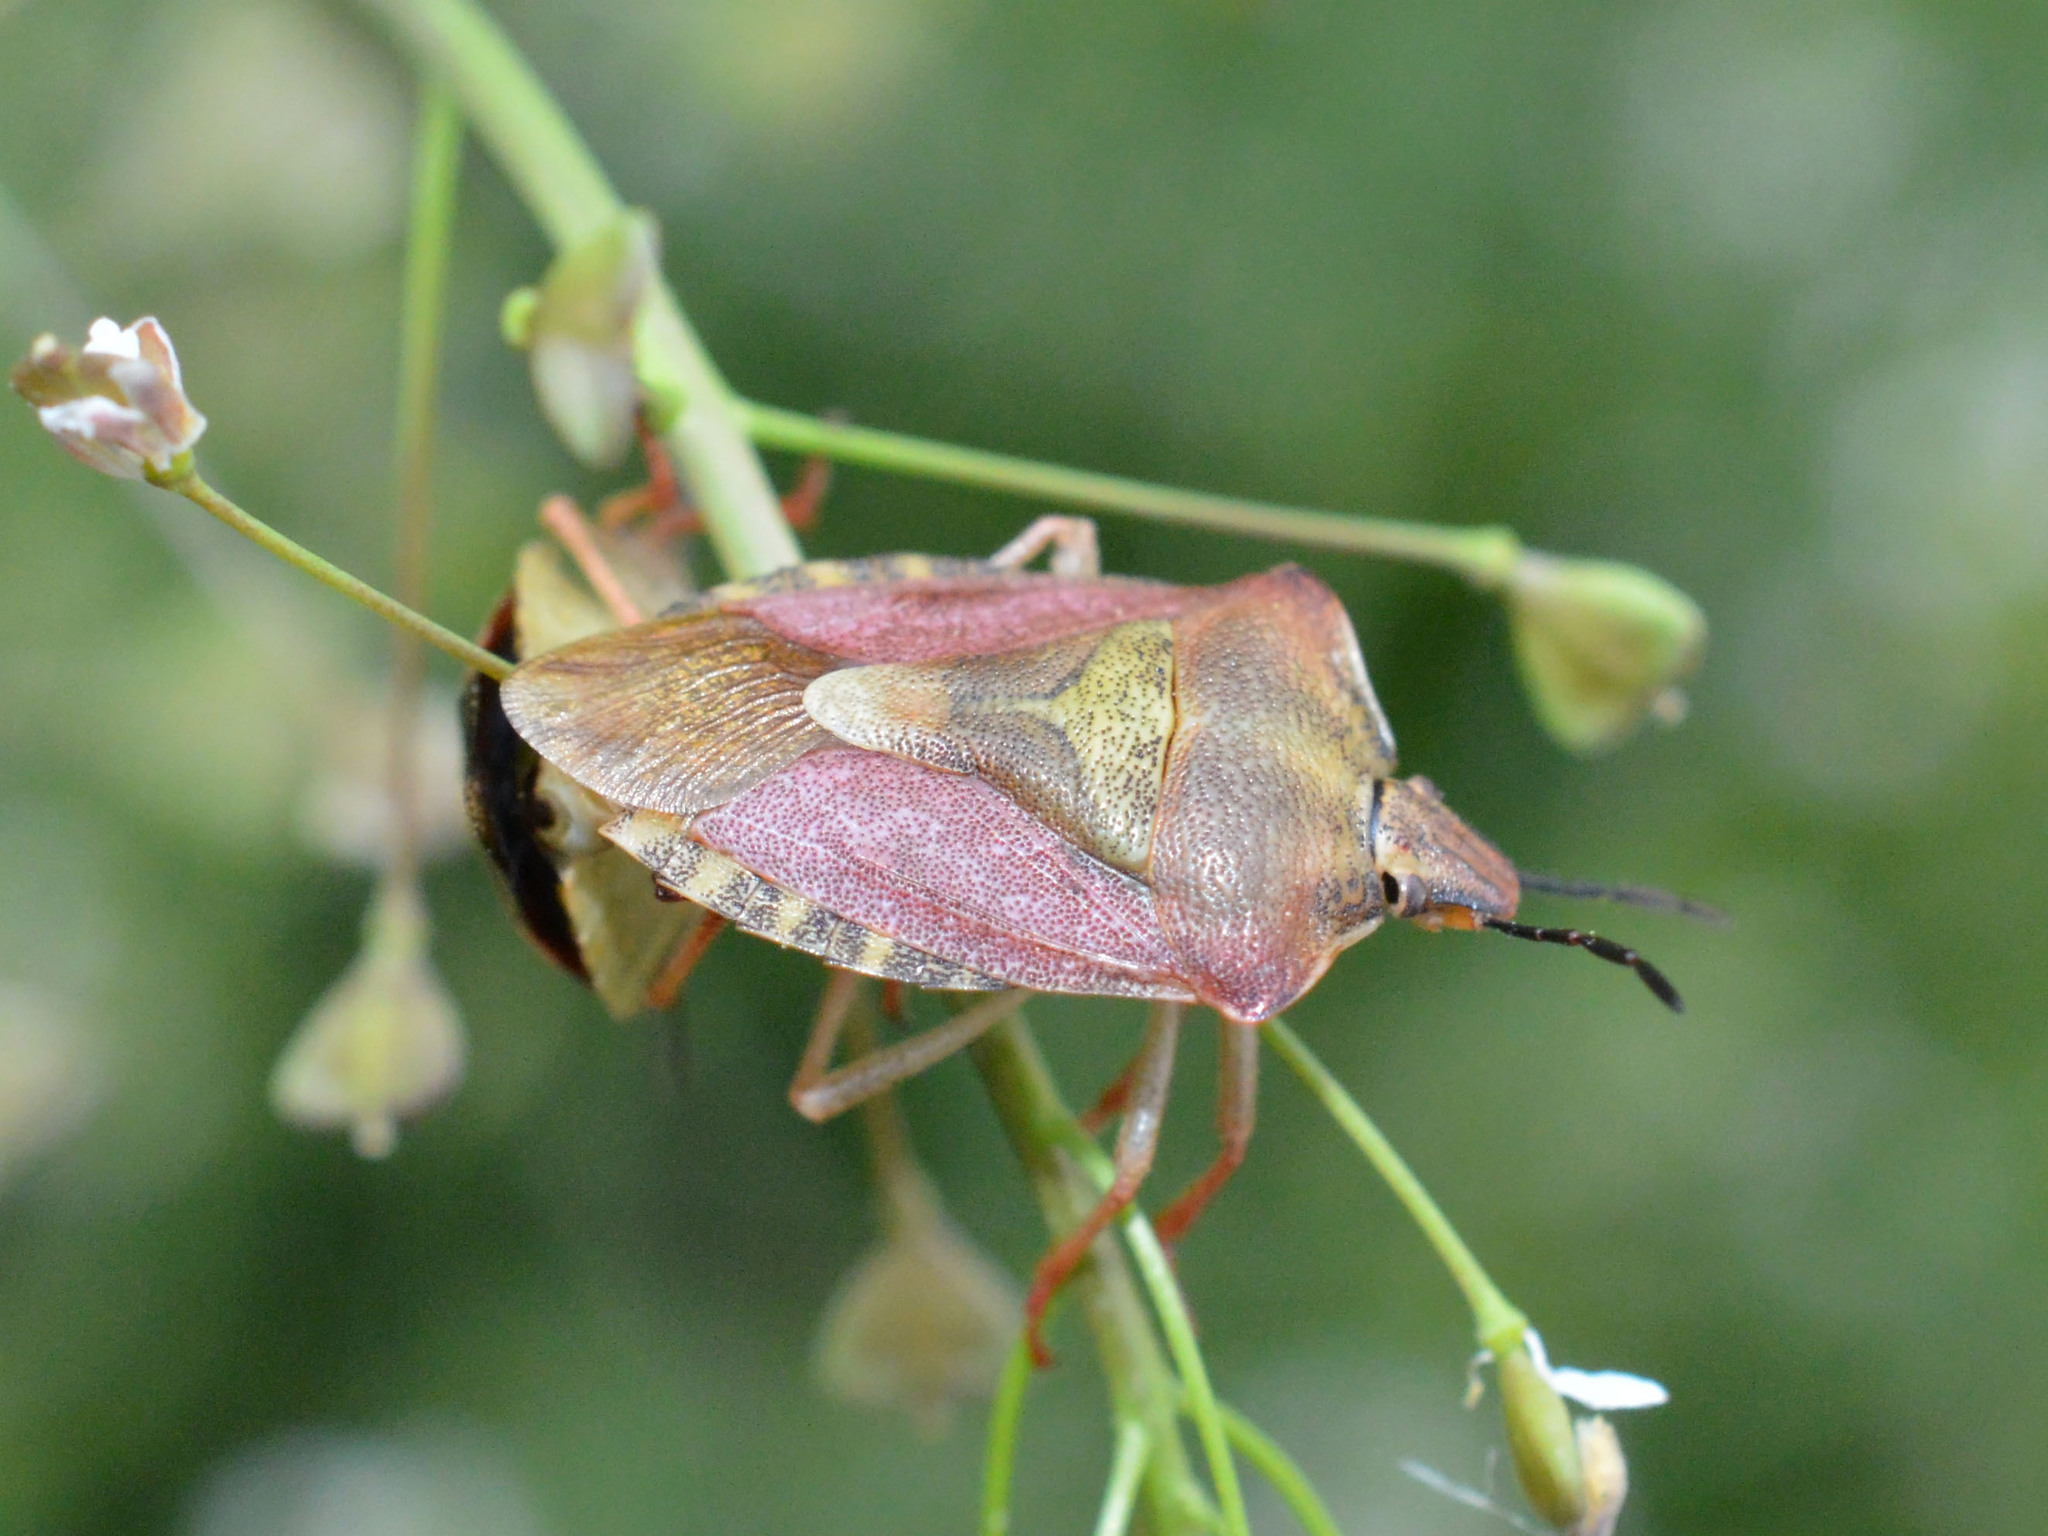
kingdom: Animalia
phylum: Arthropoda
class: Insecta
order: Hemiptera
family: Pentatomidae
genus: Carpocoris
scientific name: Carpocoris purpureipennis
